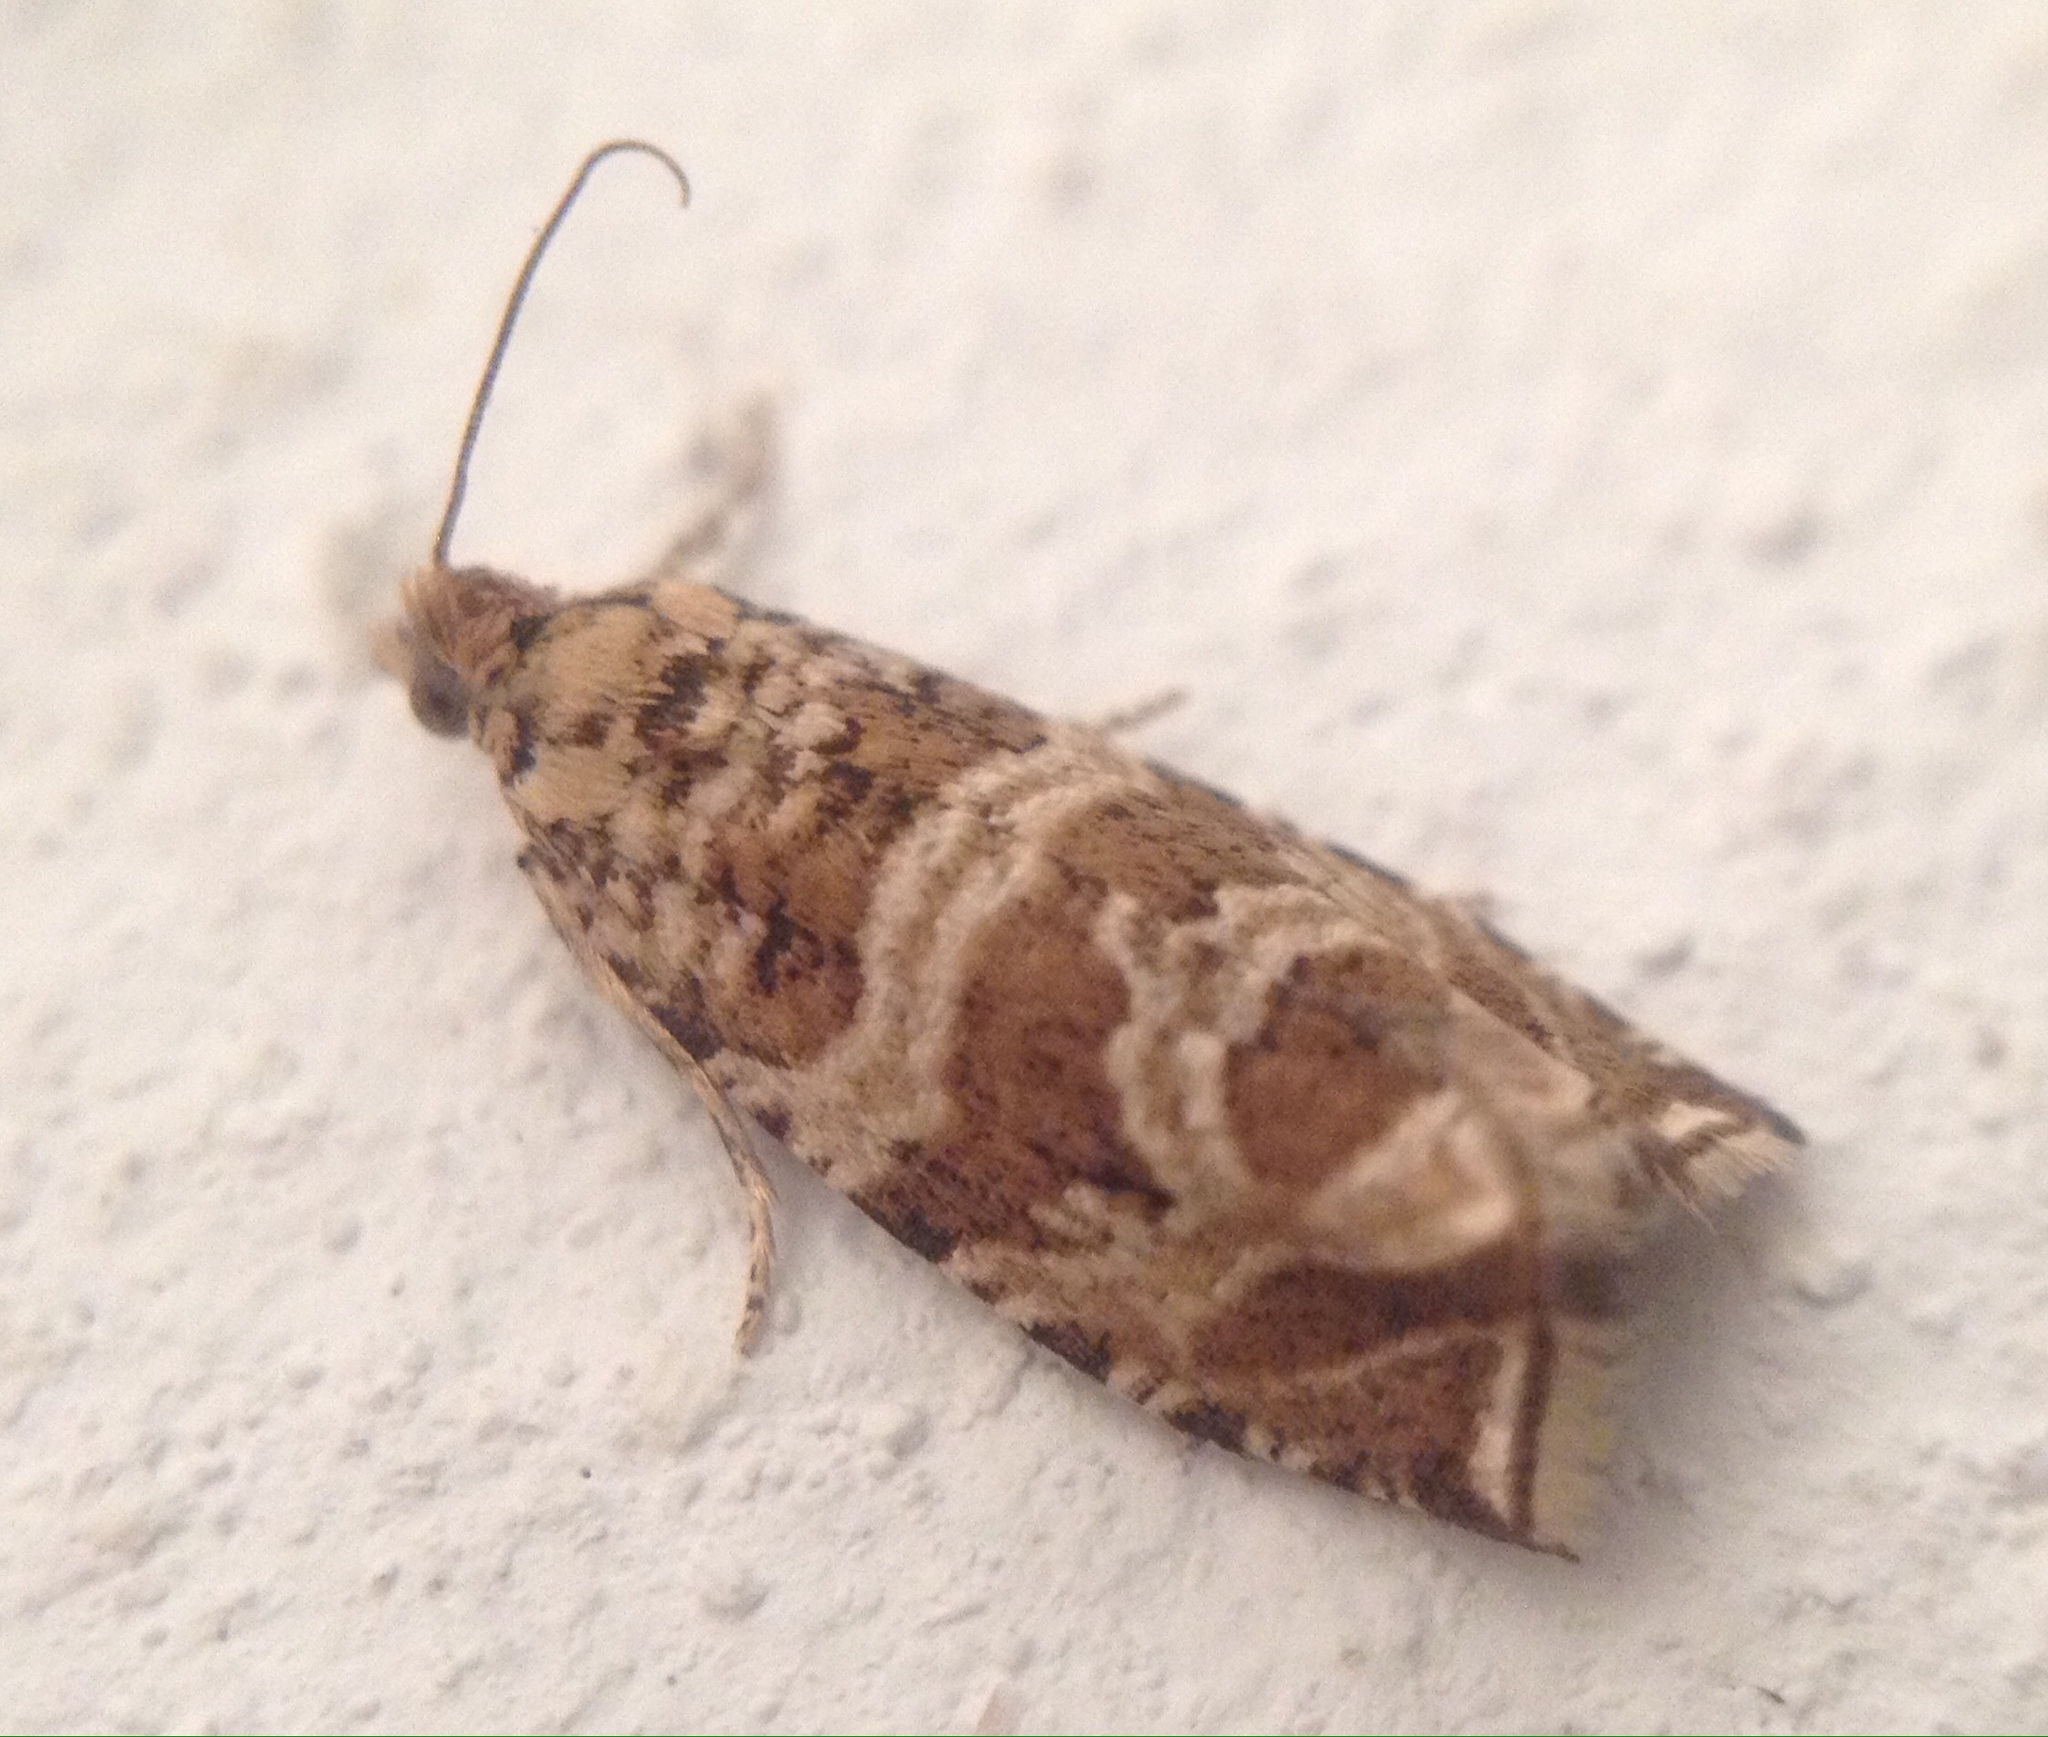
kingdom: Animalia
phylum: Arthropoda
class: Insecta
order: Lepidoptera
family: Tortricidae
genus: Syricoris
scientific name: Syricoris rivulana
